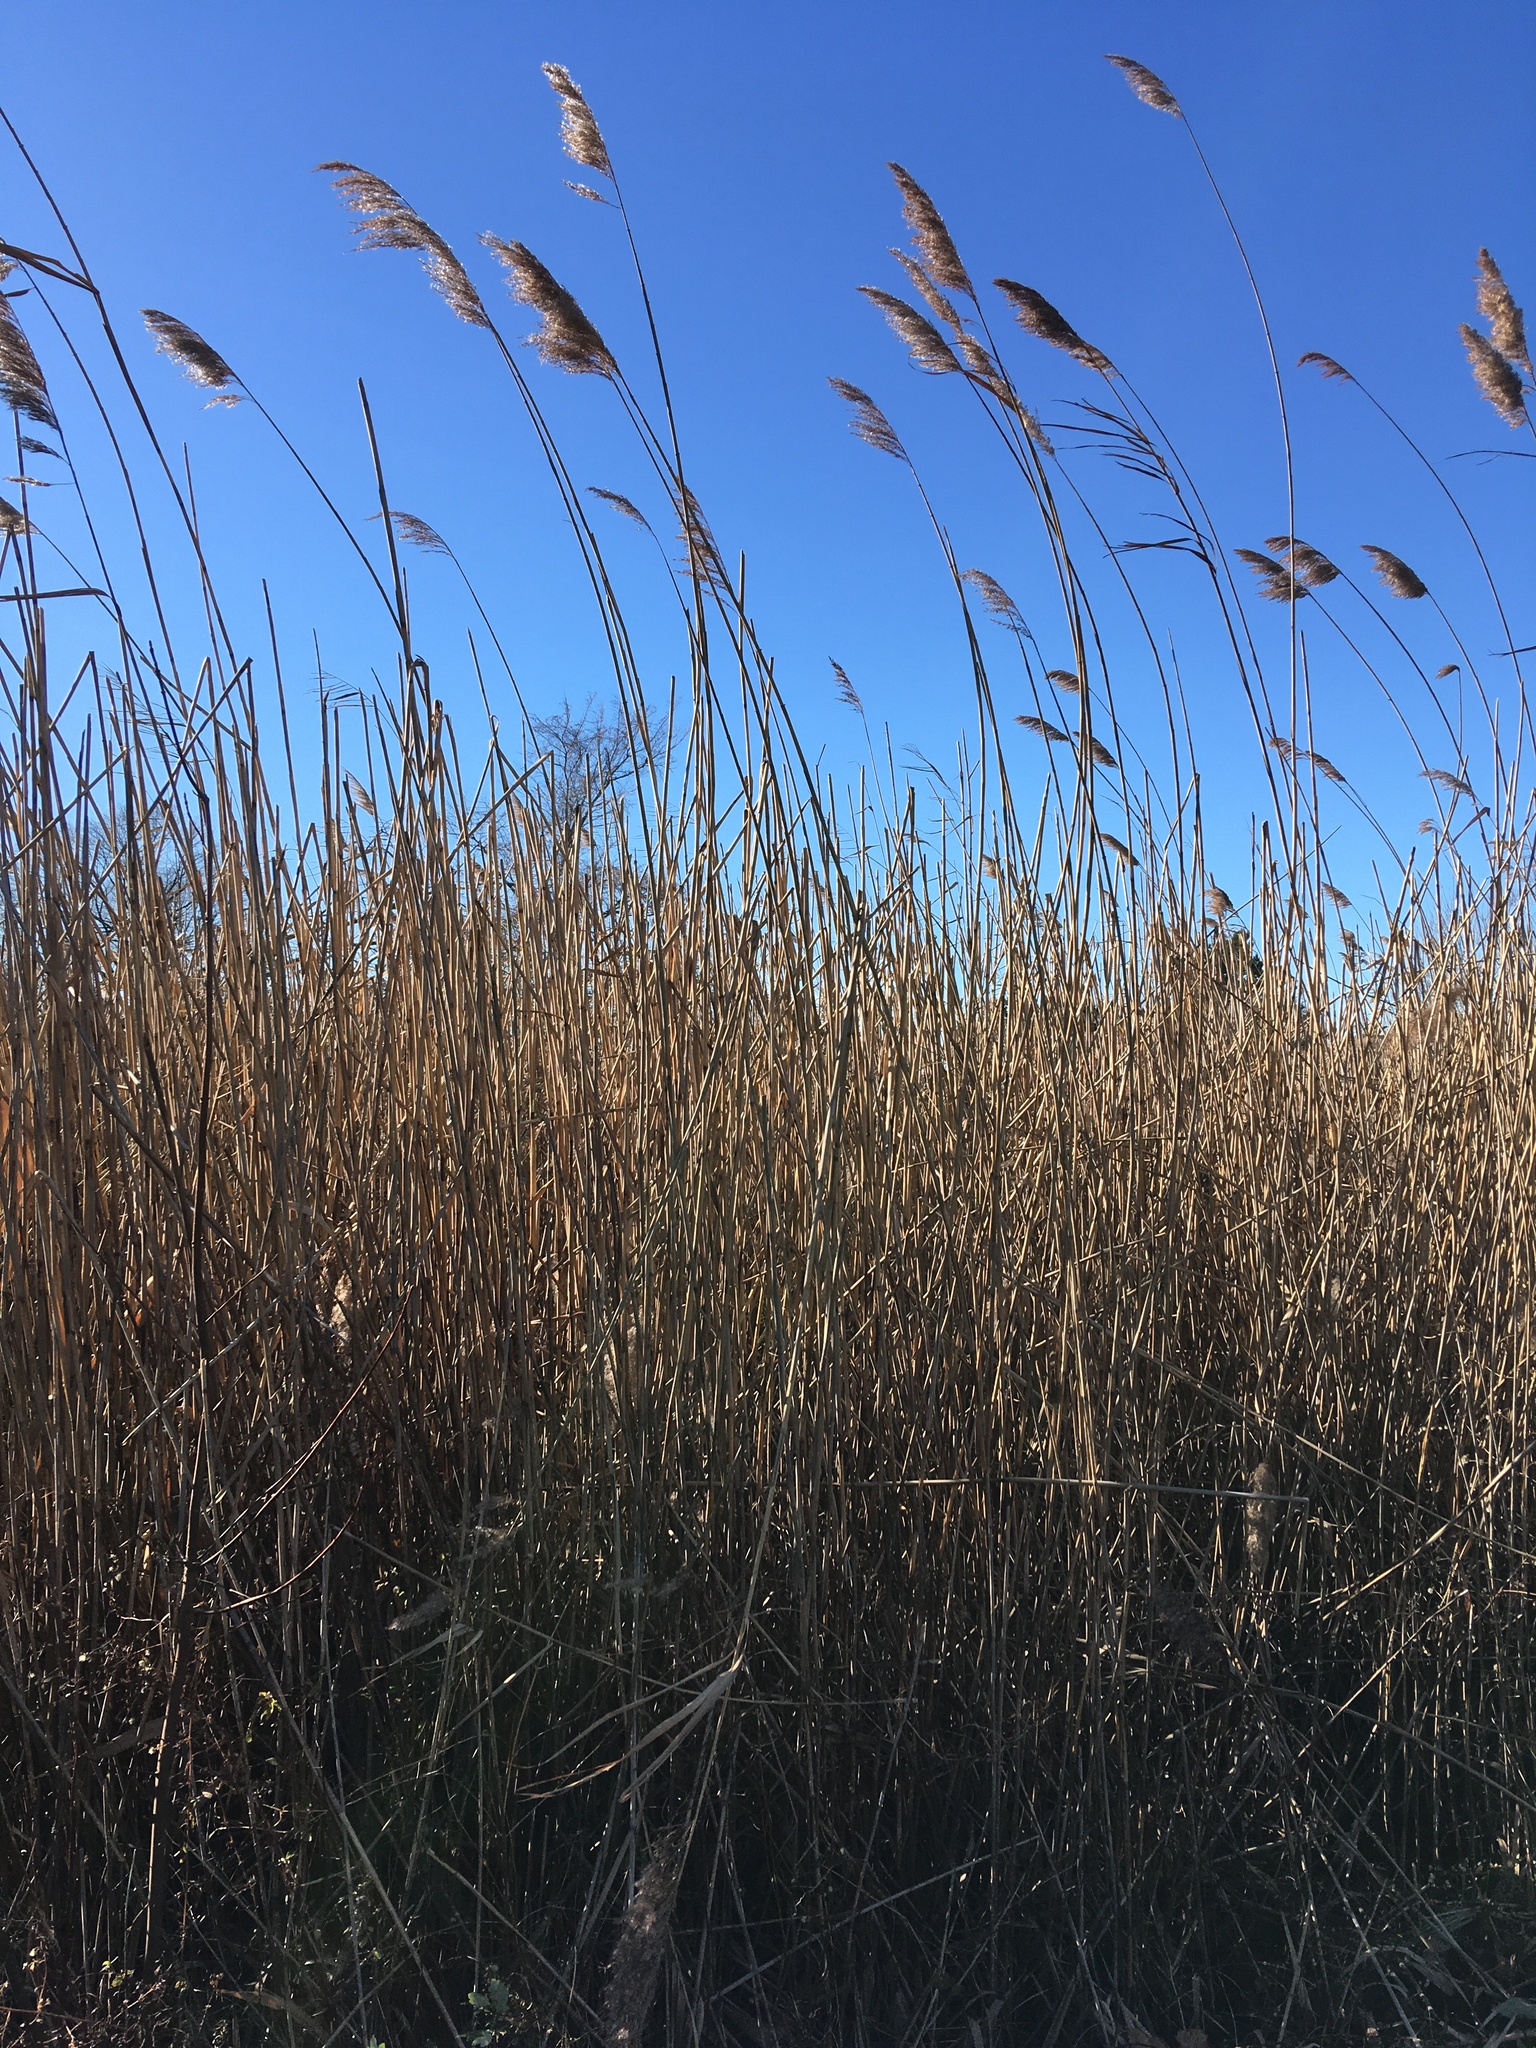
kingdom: Plantae
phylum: Tracheophyta
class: Liliopsida
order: Poales
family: Poaceae
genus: Phragmites
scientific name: Phragmites australis
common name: Common reed
